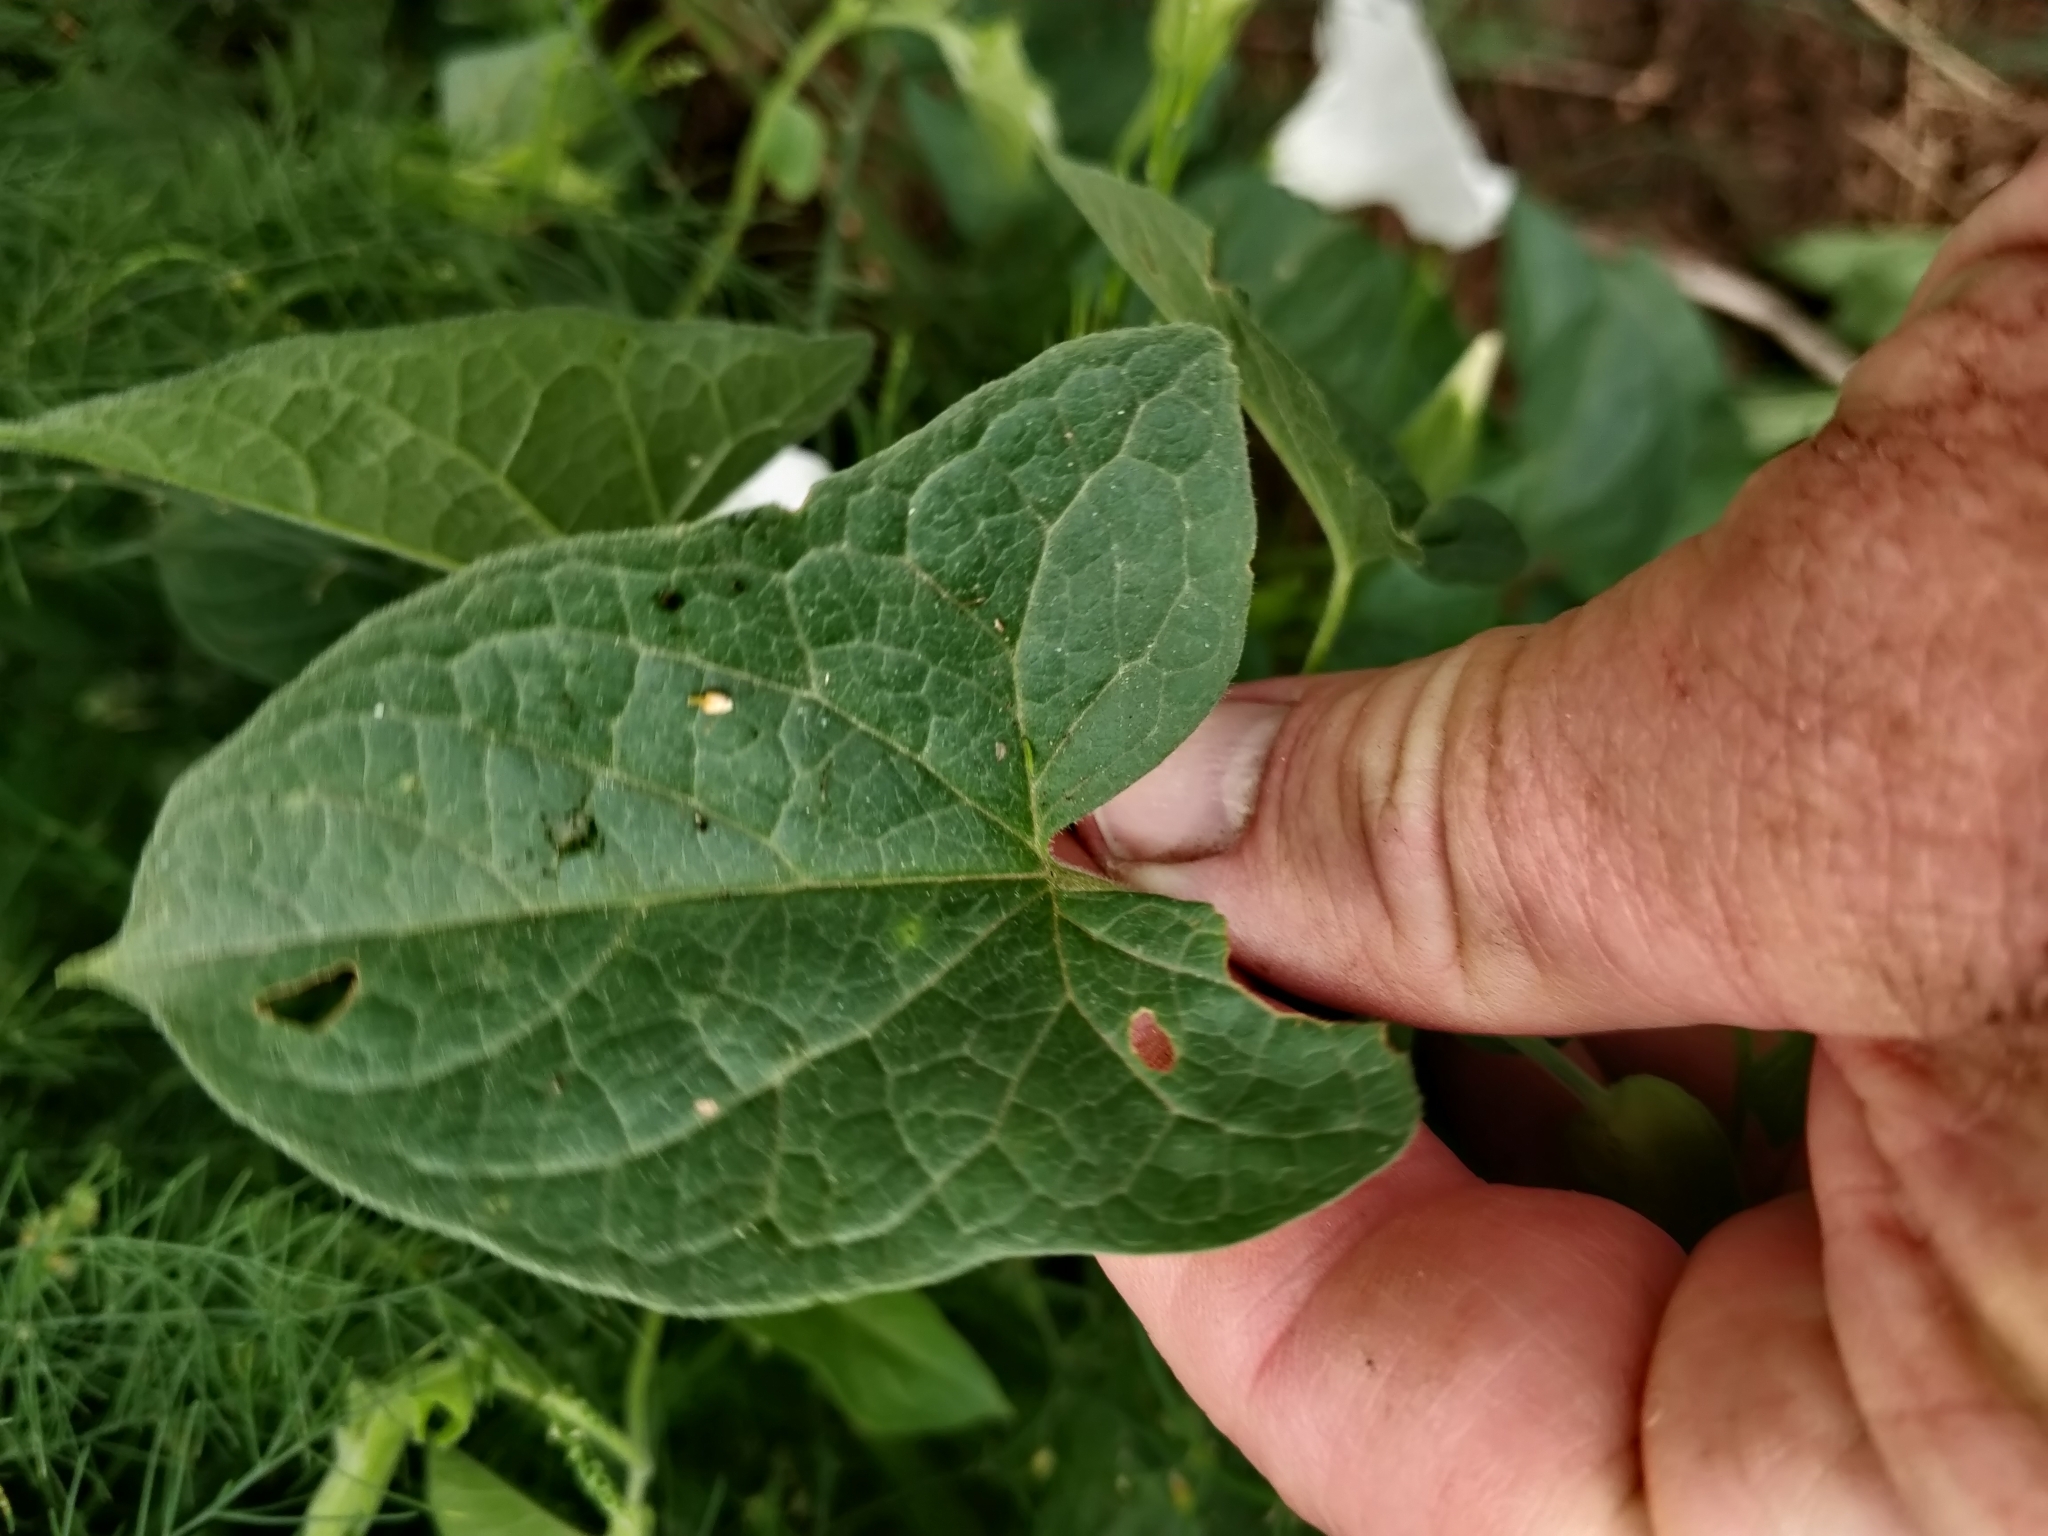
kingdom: Plantae
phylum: Tracheophyta
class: Magnoliopsida
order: Solanales
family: Convolvulaceae
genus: Calystegia
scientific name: Calystegia sepium
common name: Hedge bindweed
